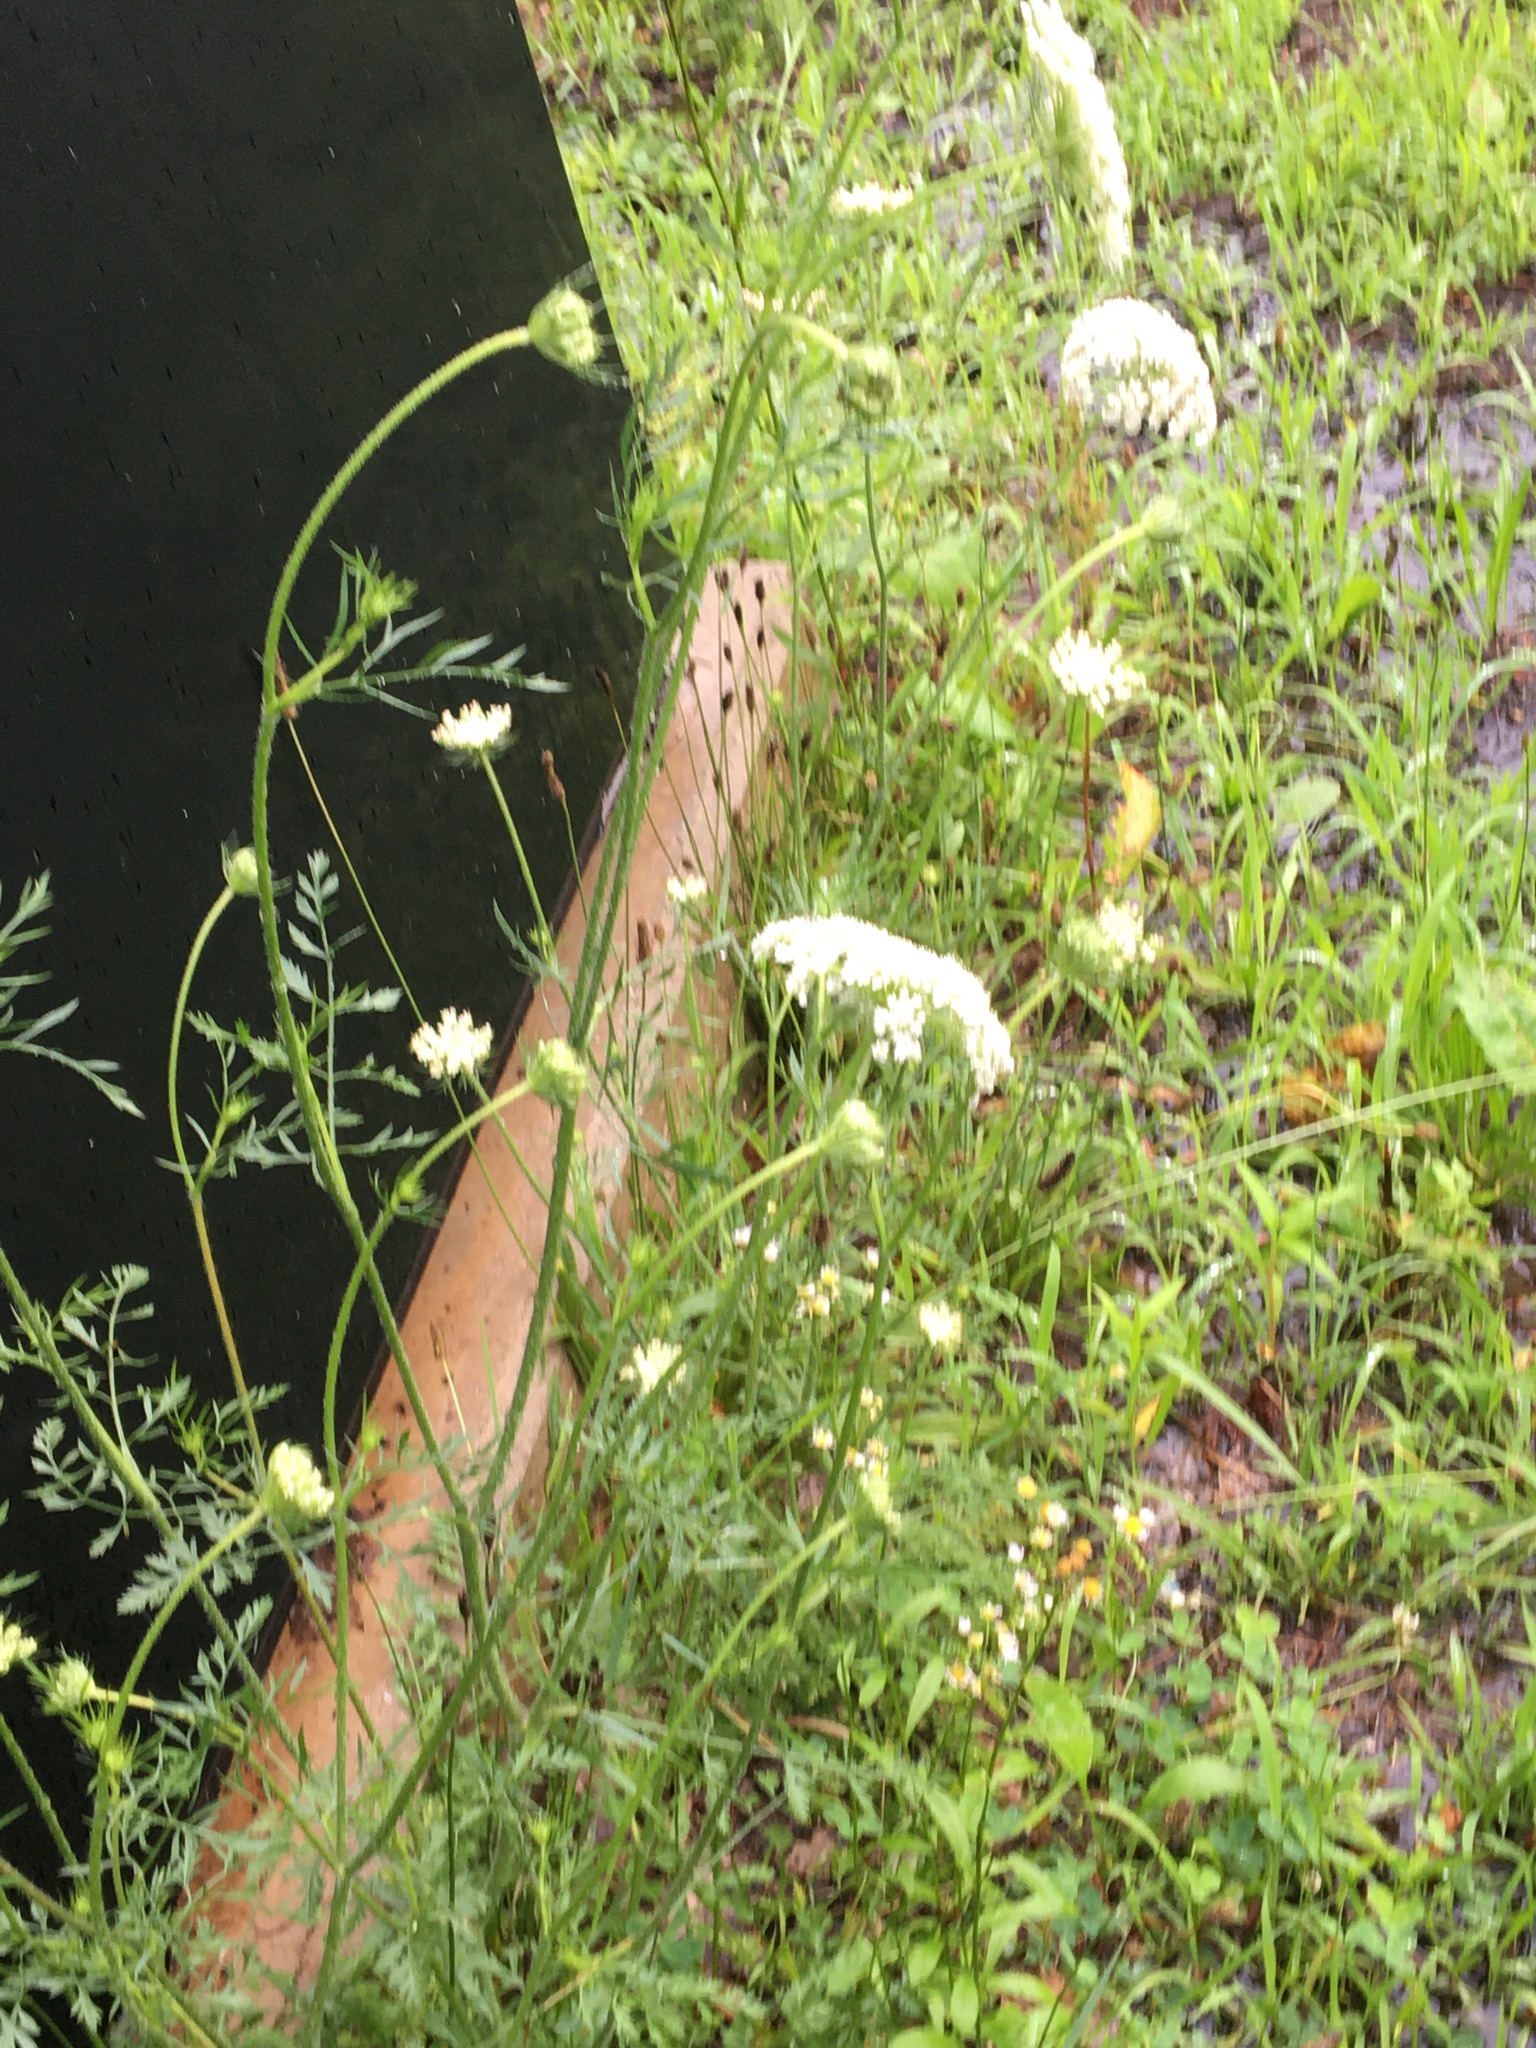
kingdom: Plantae
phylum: Tracheophyta
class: Magnoliopsida
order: Apiales
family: Apiaceae
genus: Daucus
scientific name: Daucus carota
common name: Wild carrot
